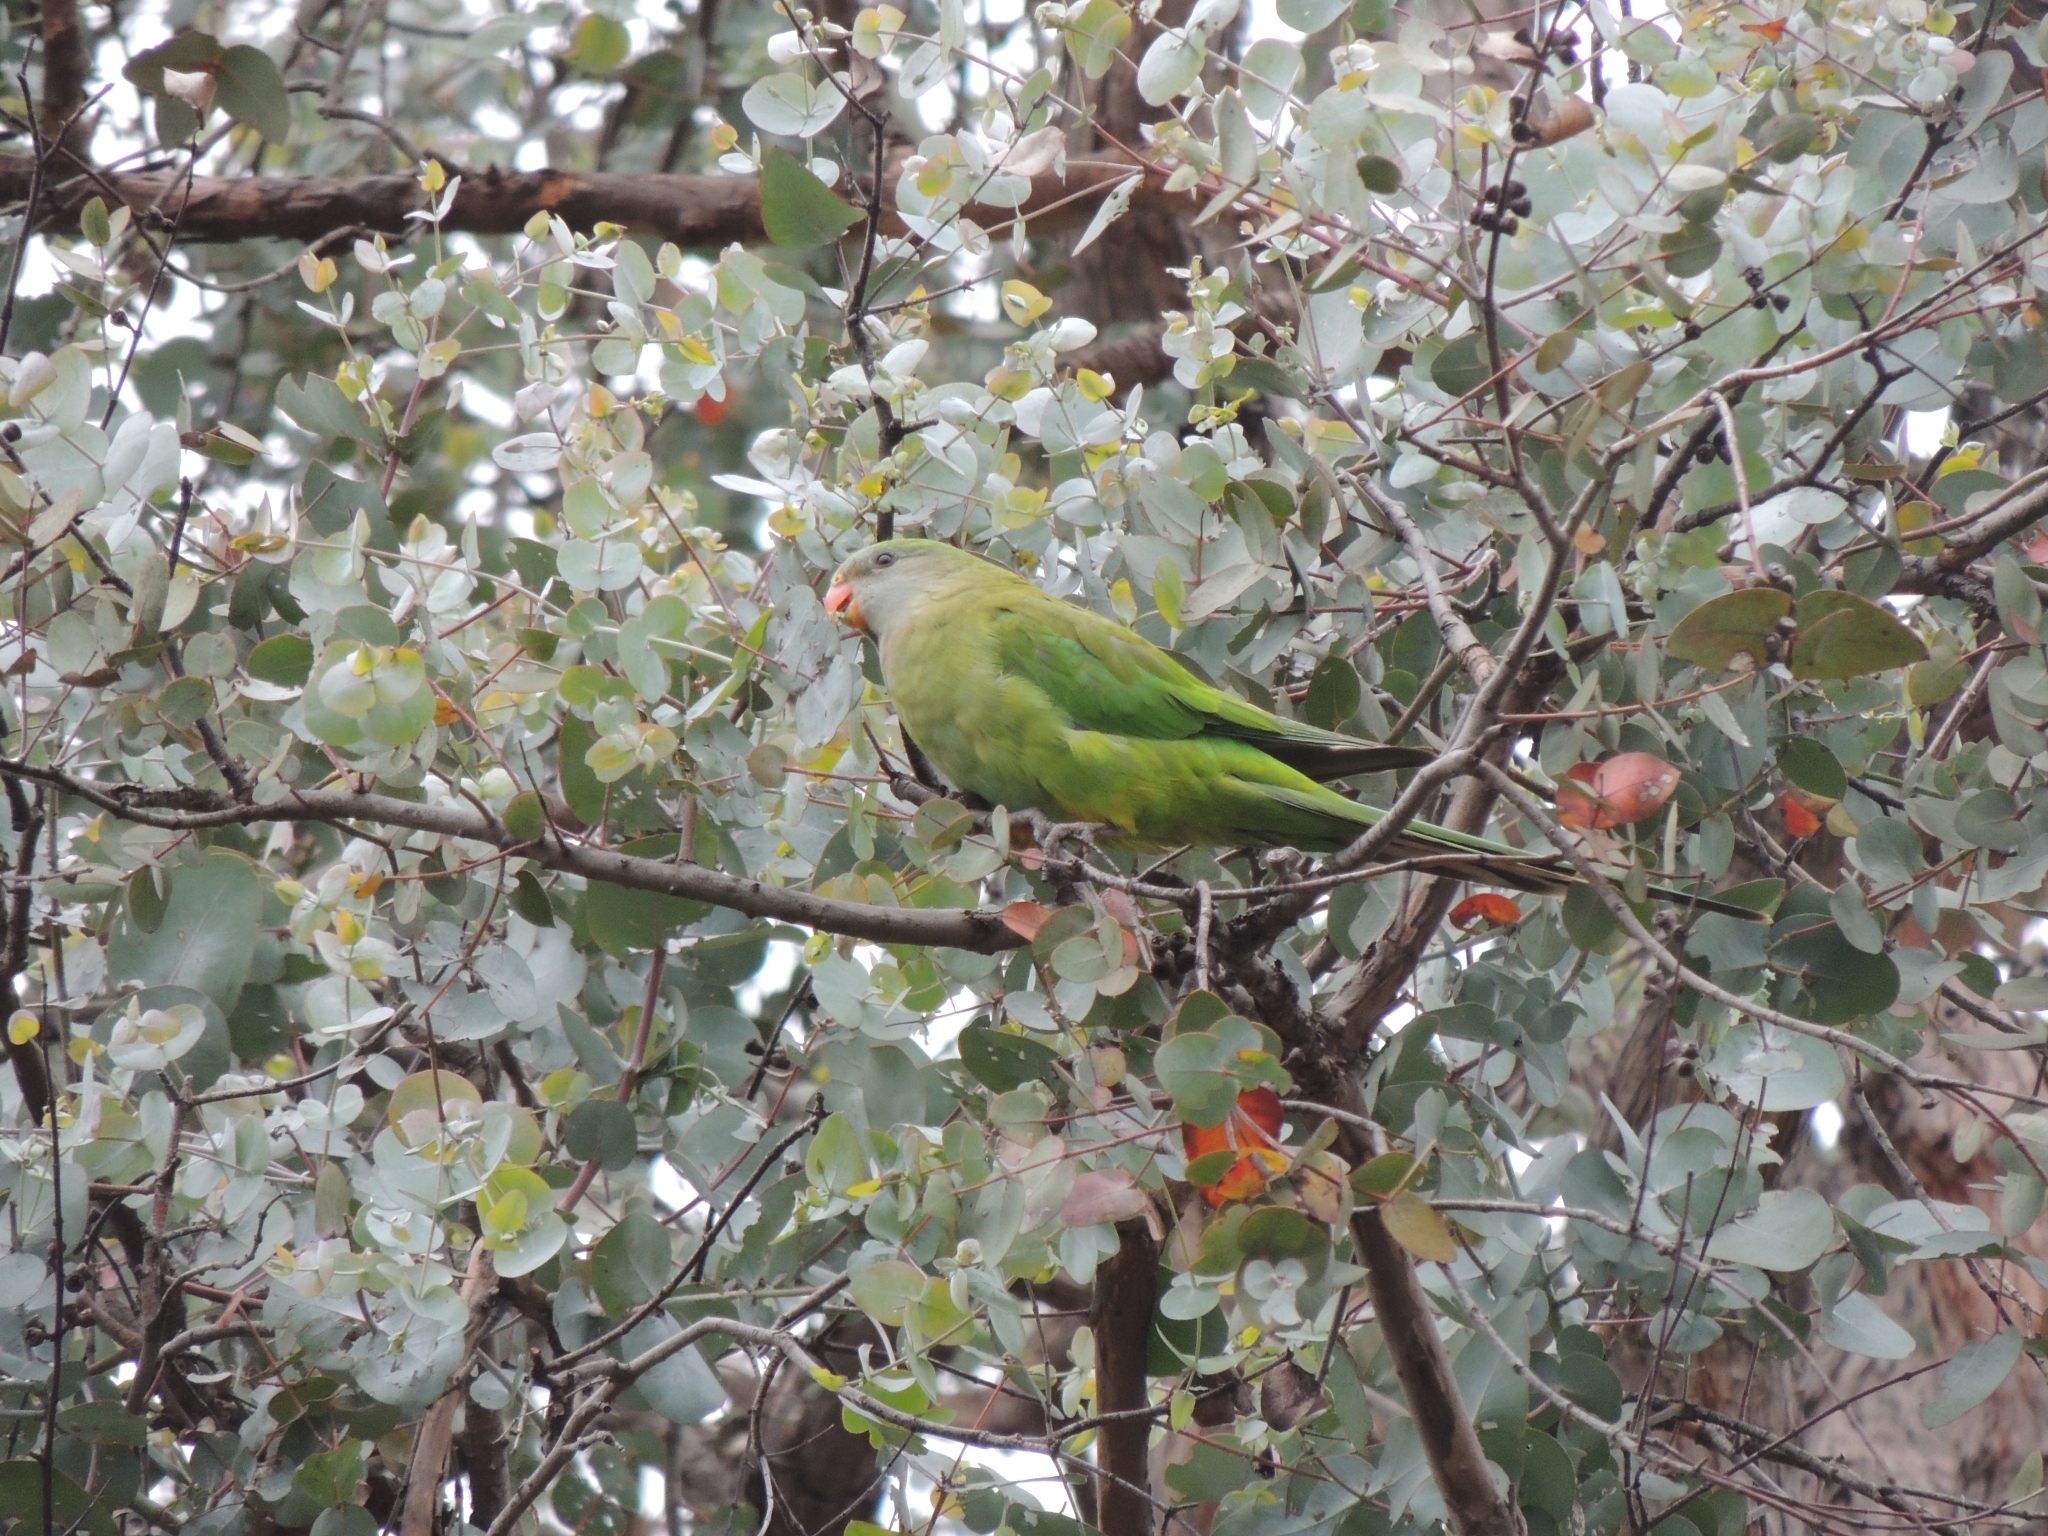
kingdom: Animalia
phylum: Chordata
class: Aves
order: Psittaciformes
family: Psittacidae
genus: Polytelis
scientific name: Polytelis swainsonii
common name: Superb parrot
